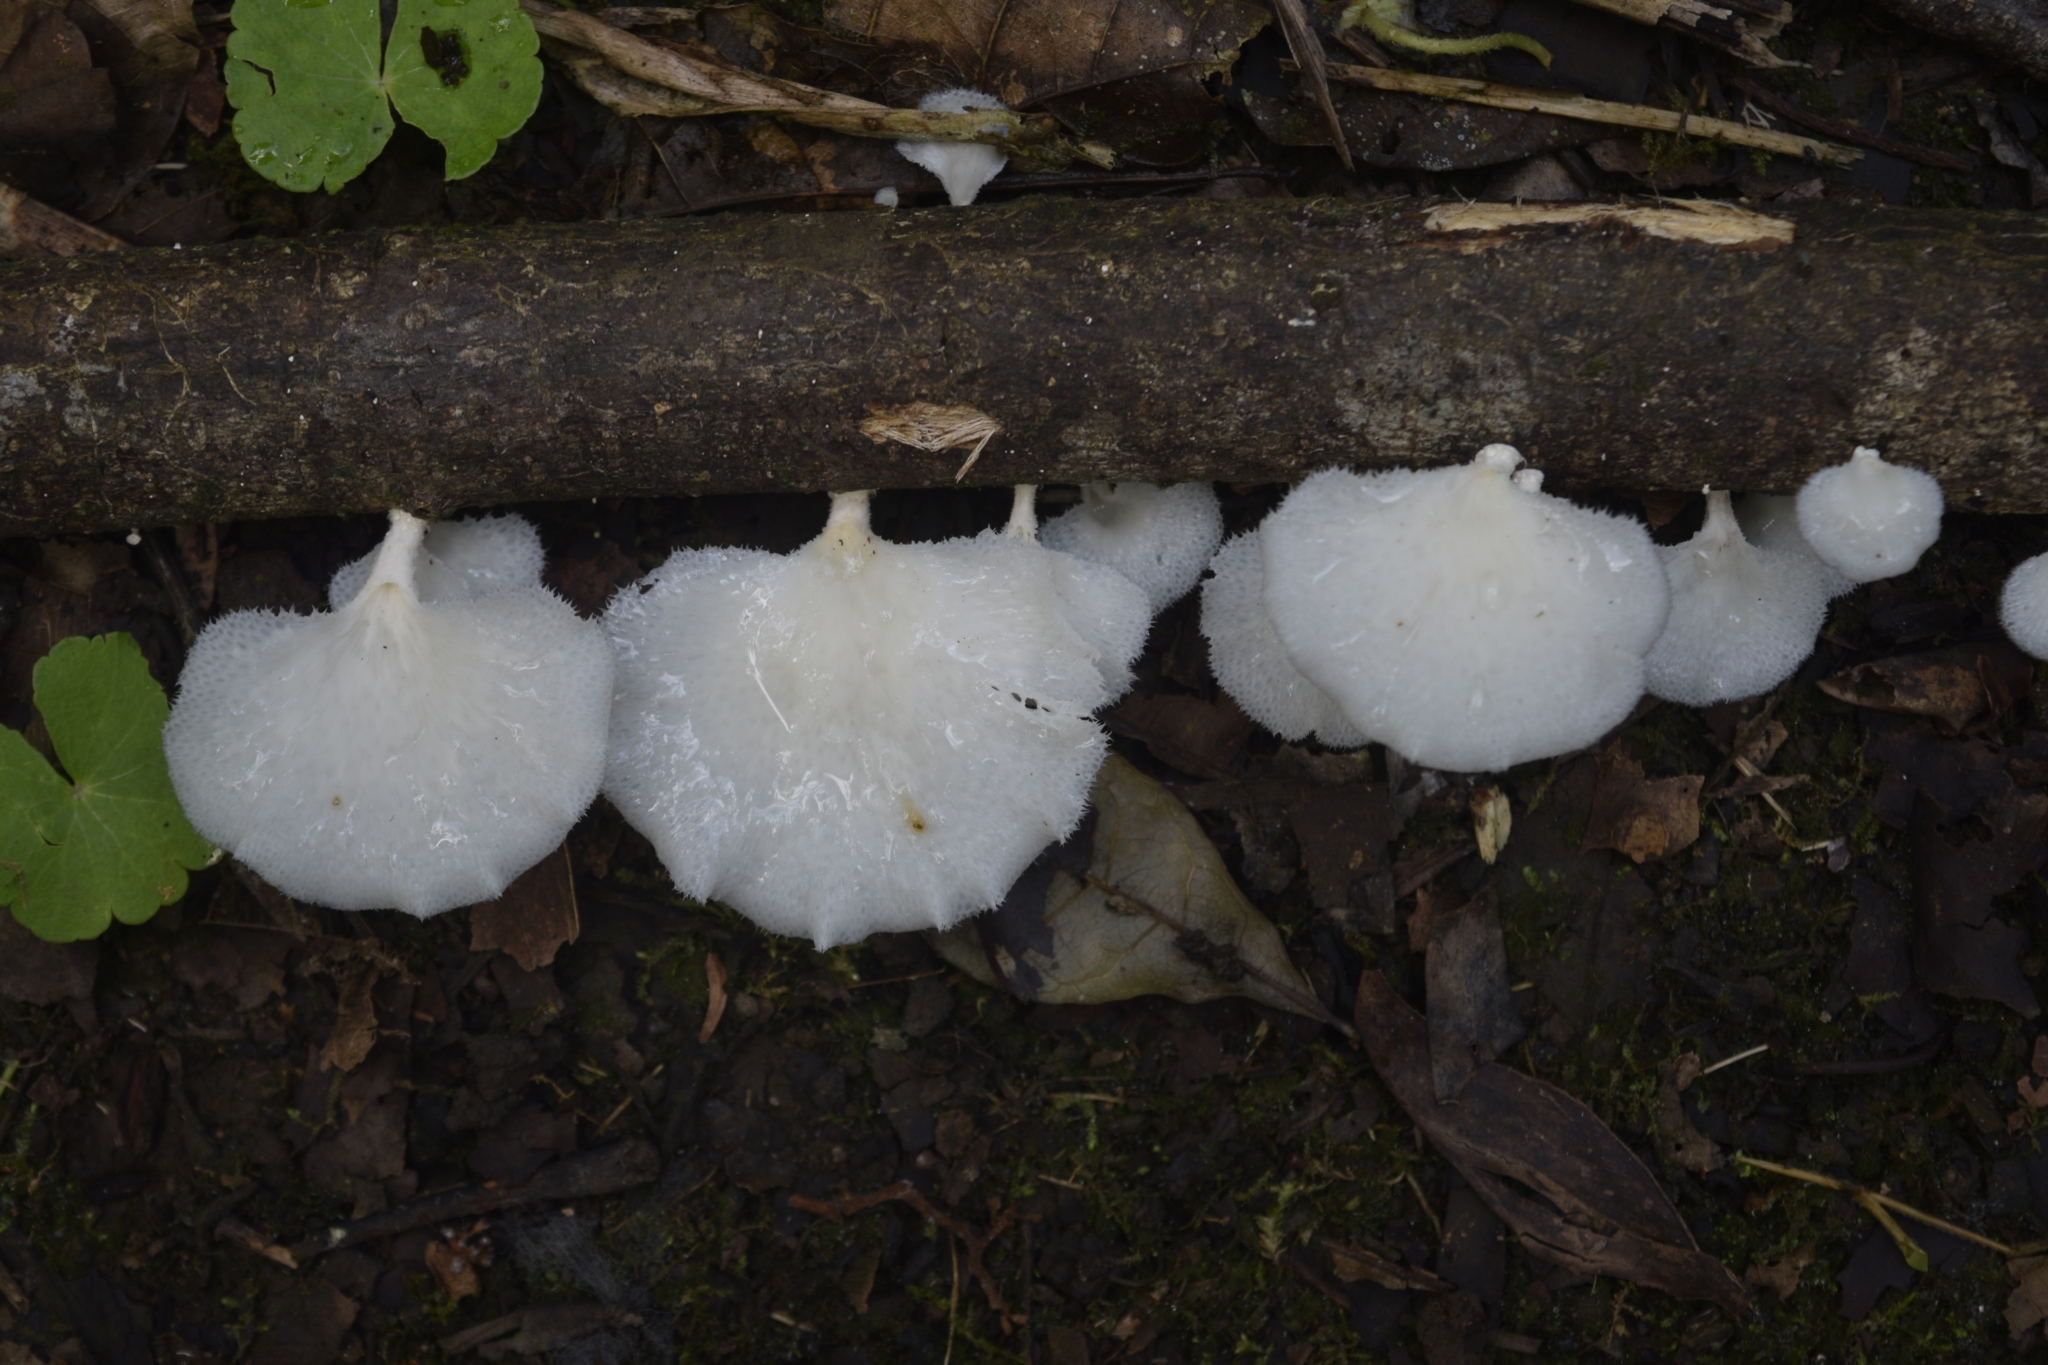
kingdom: Fungi
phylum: Basidiomycota
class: Agaricomycetes
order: Polyporales
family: Polyporaceae
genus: Favolus
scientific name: Favolus tenuiculus
